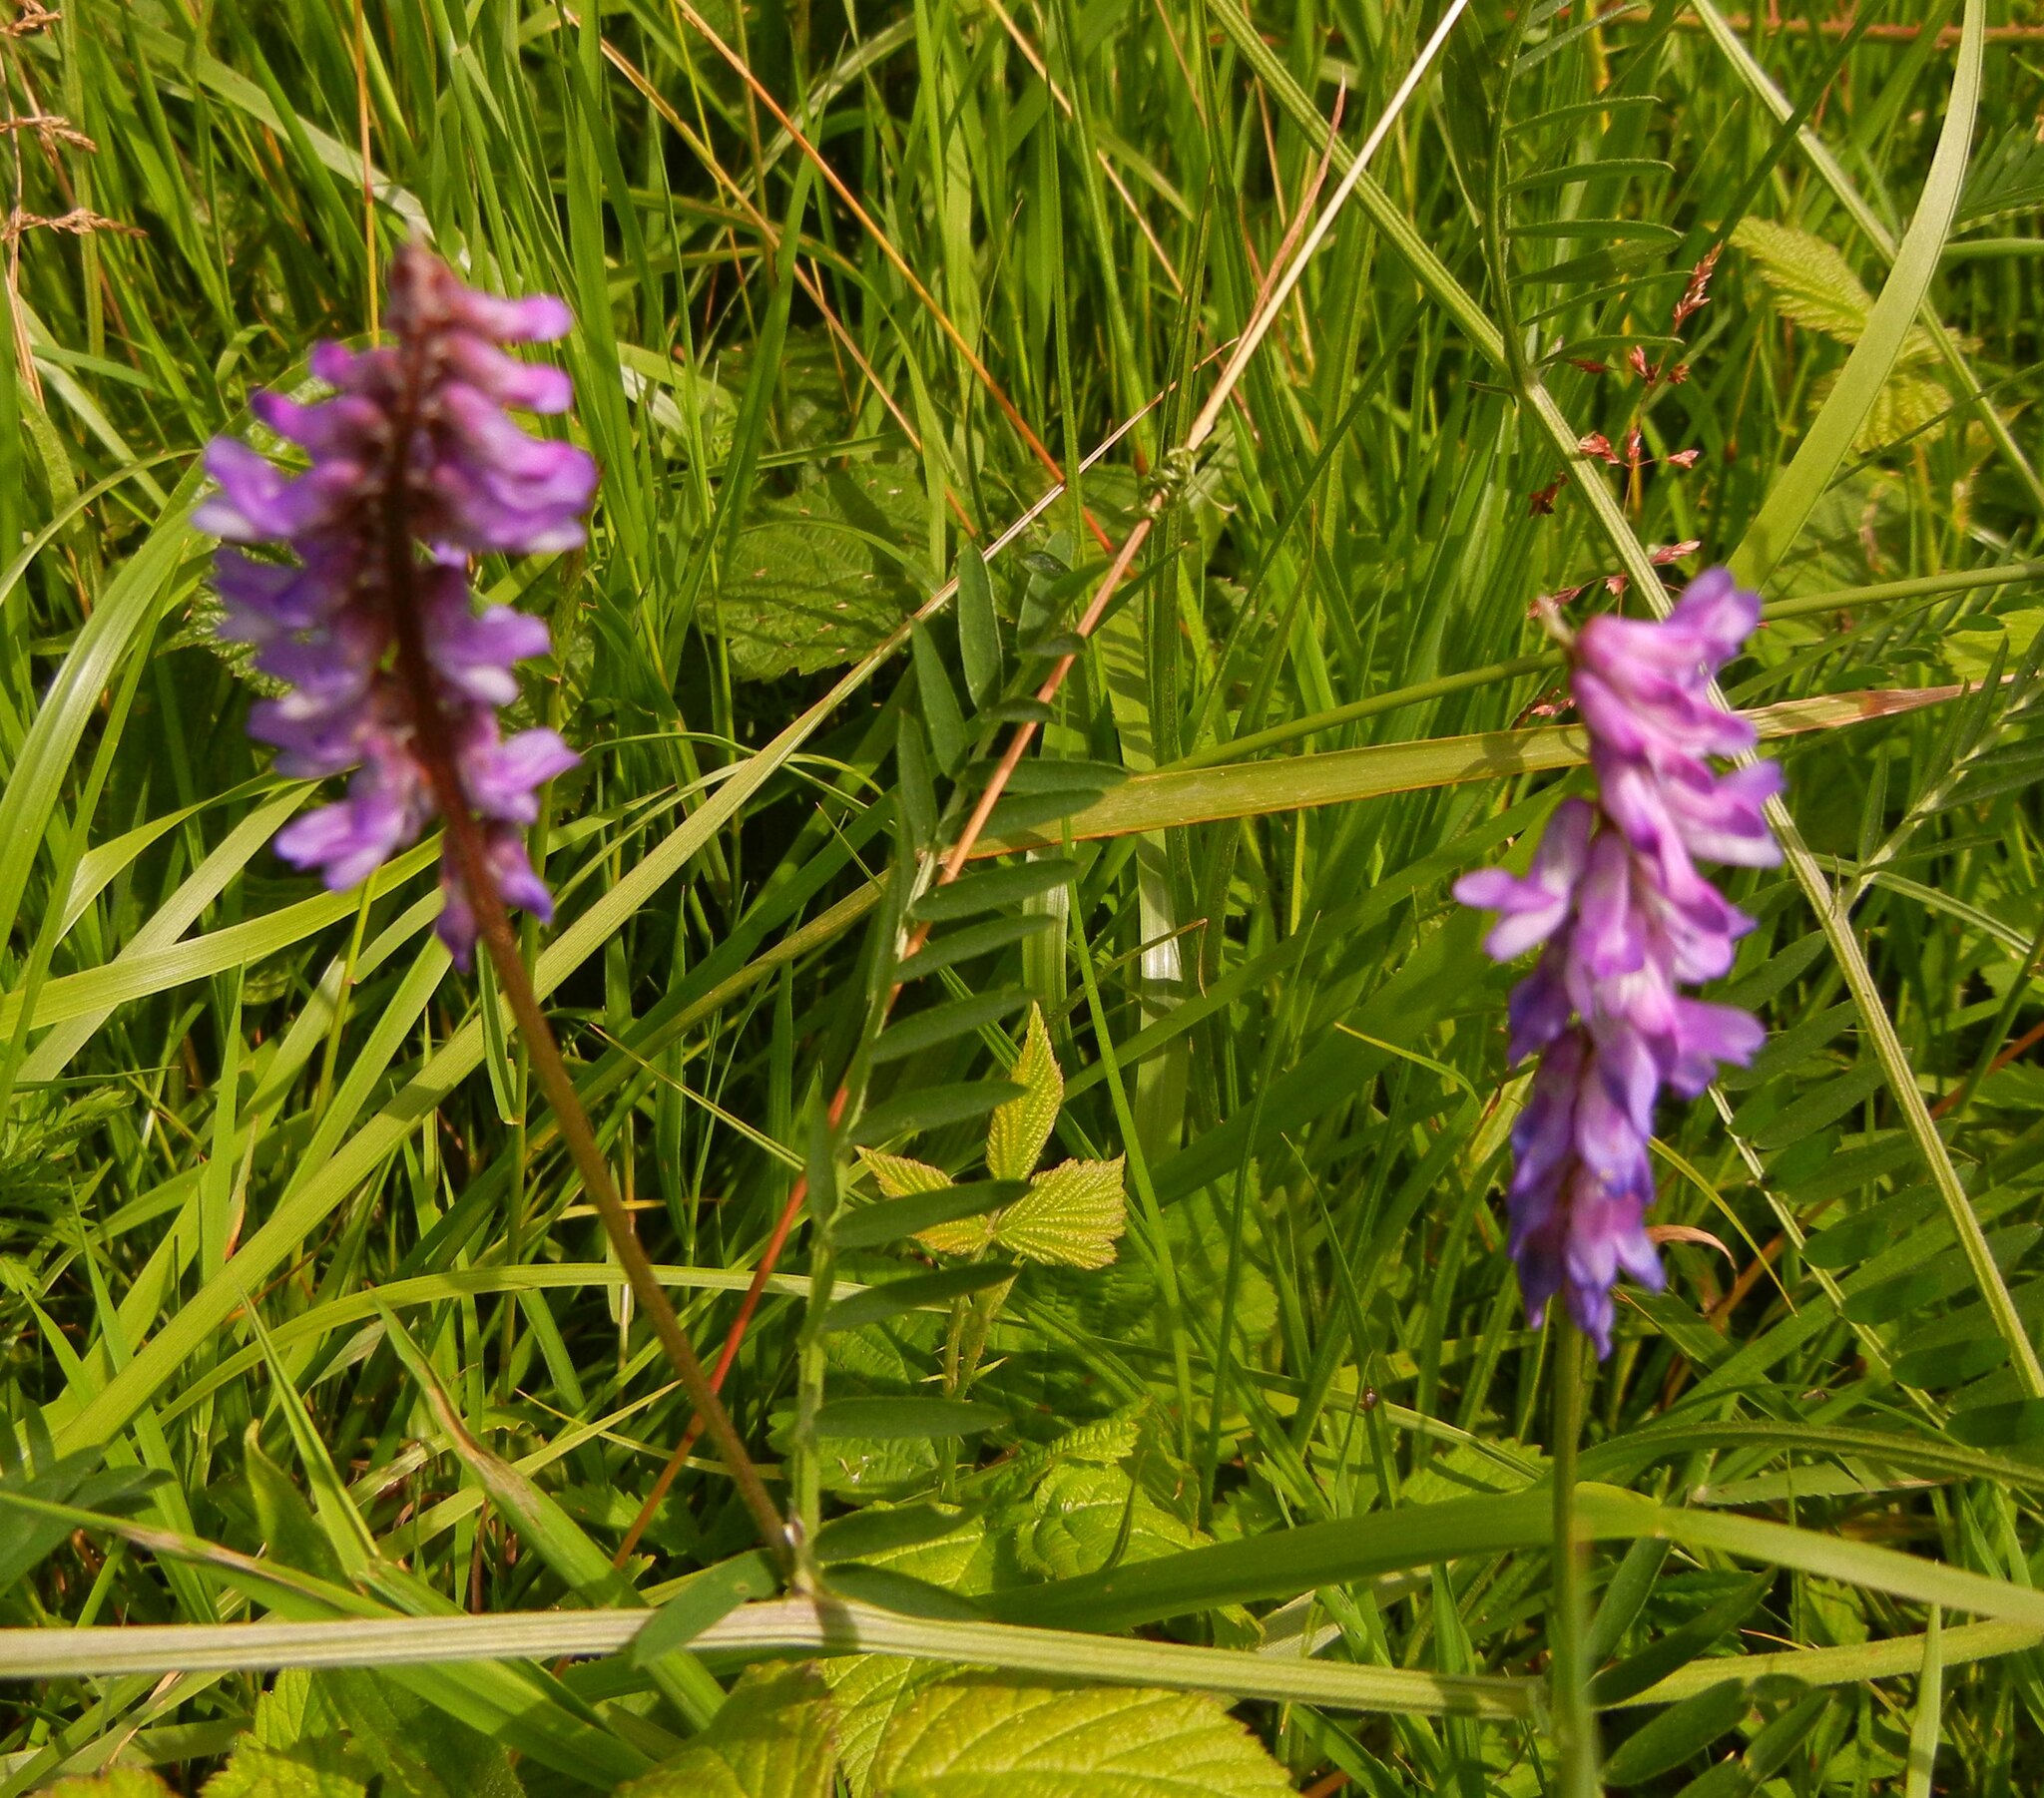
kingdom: Plantae
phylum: Tracheophyta
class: Magnoliopsida
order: Fabales
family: Fabaceae
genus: Vicia
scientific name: Vicia cracca
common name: Bird vetch
